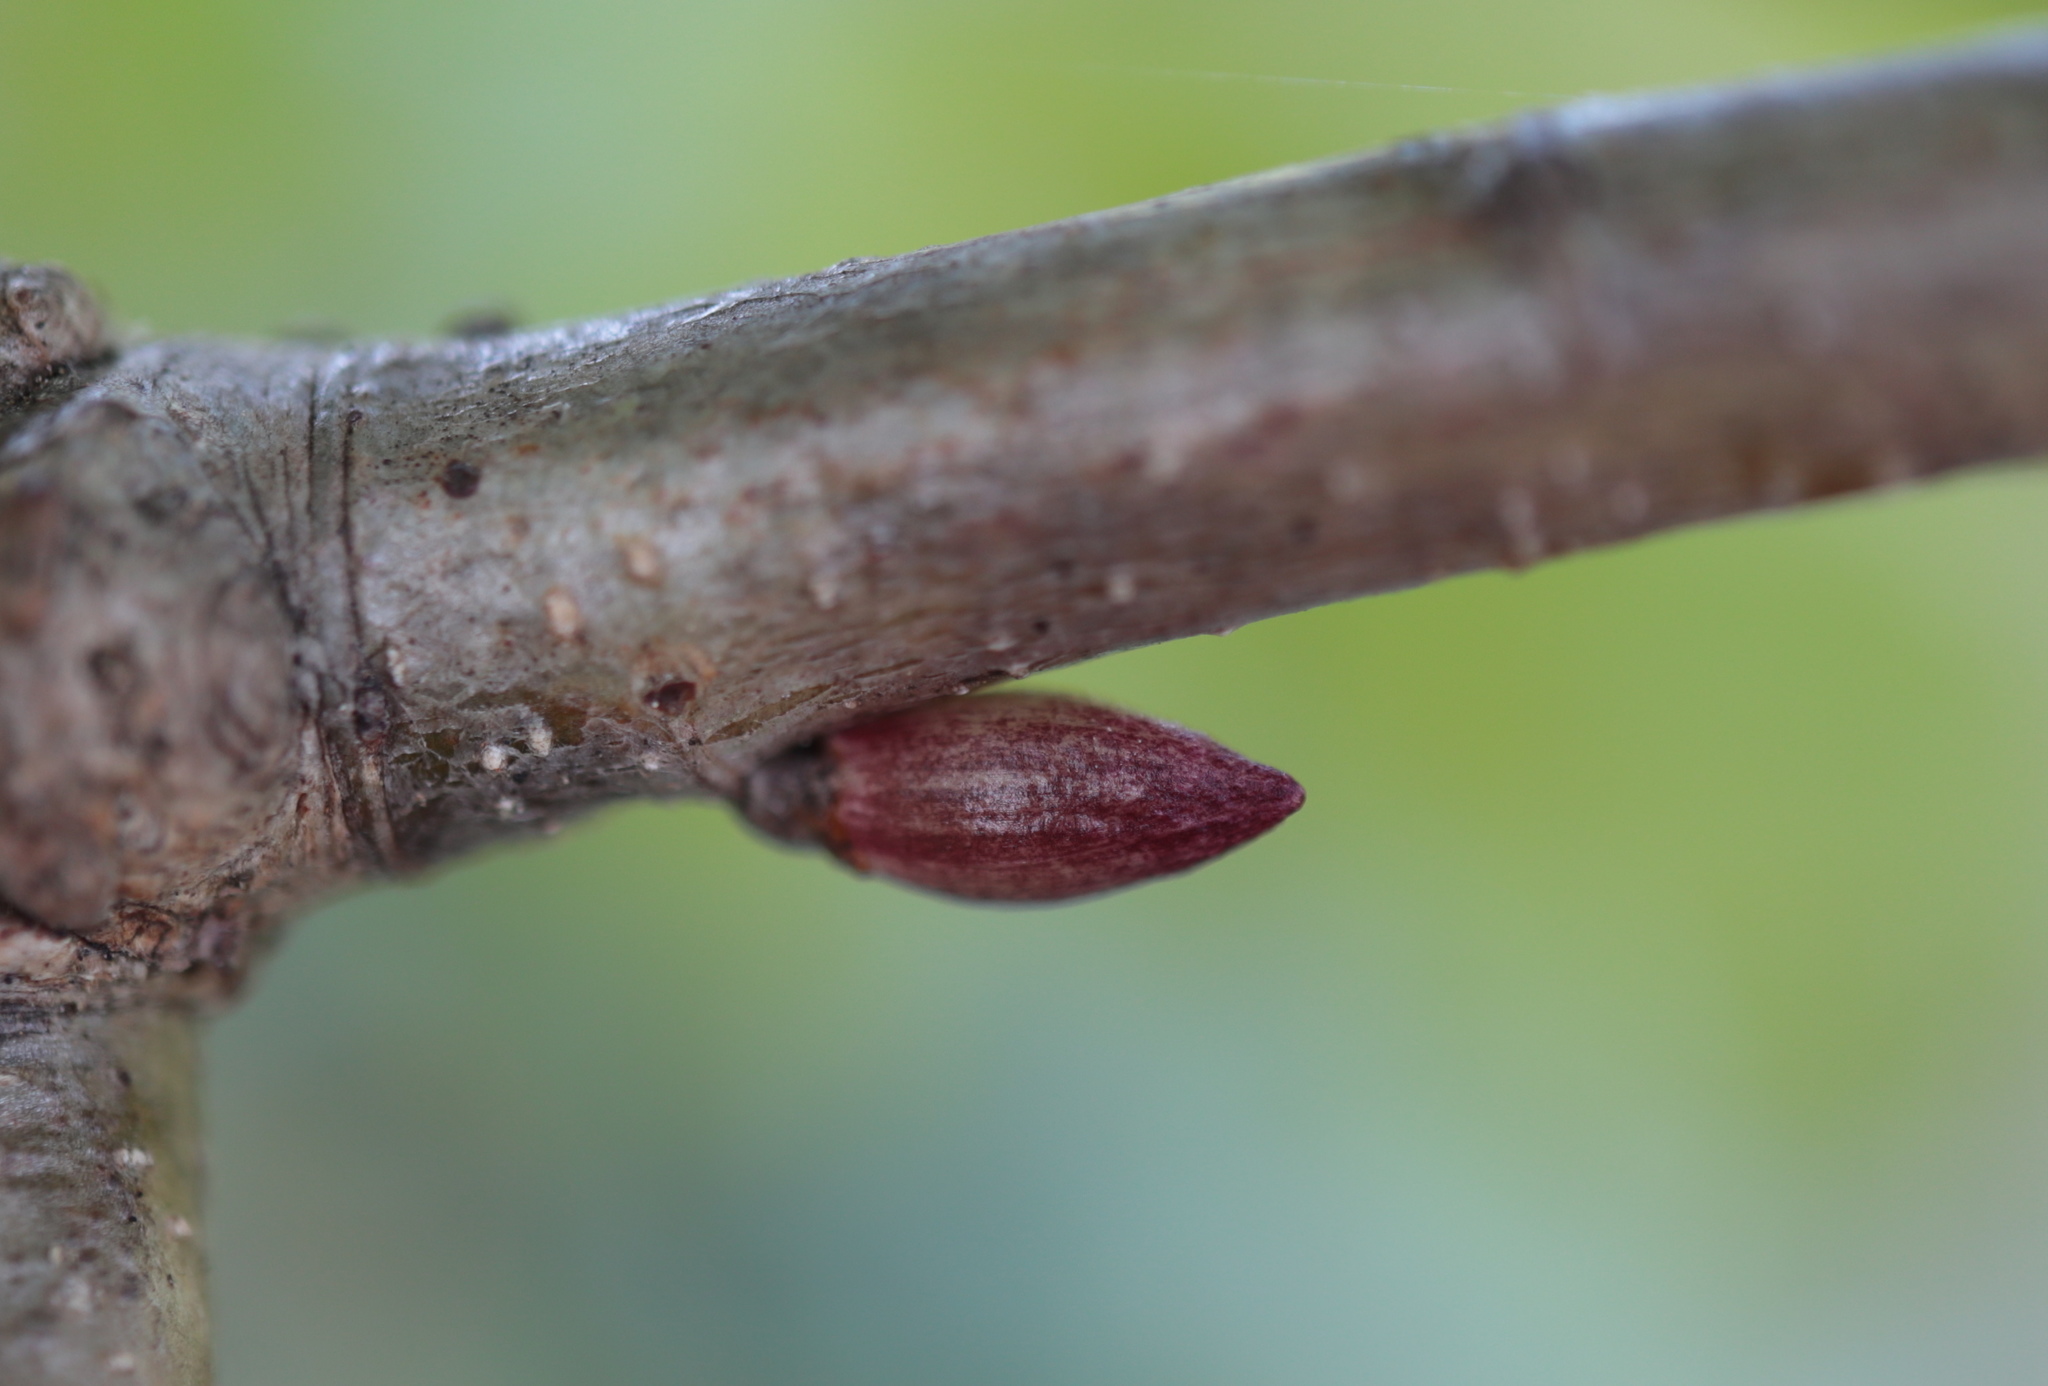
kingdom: Animalia
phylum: Arthropoda
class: Insecta
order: Hymenoptera
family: Cynipidae
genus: Andricus
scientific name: Andricus
